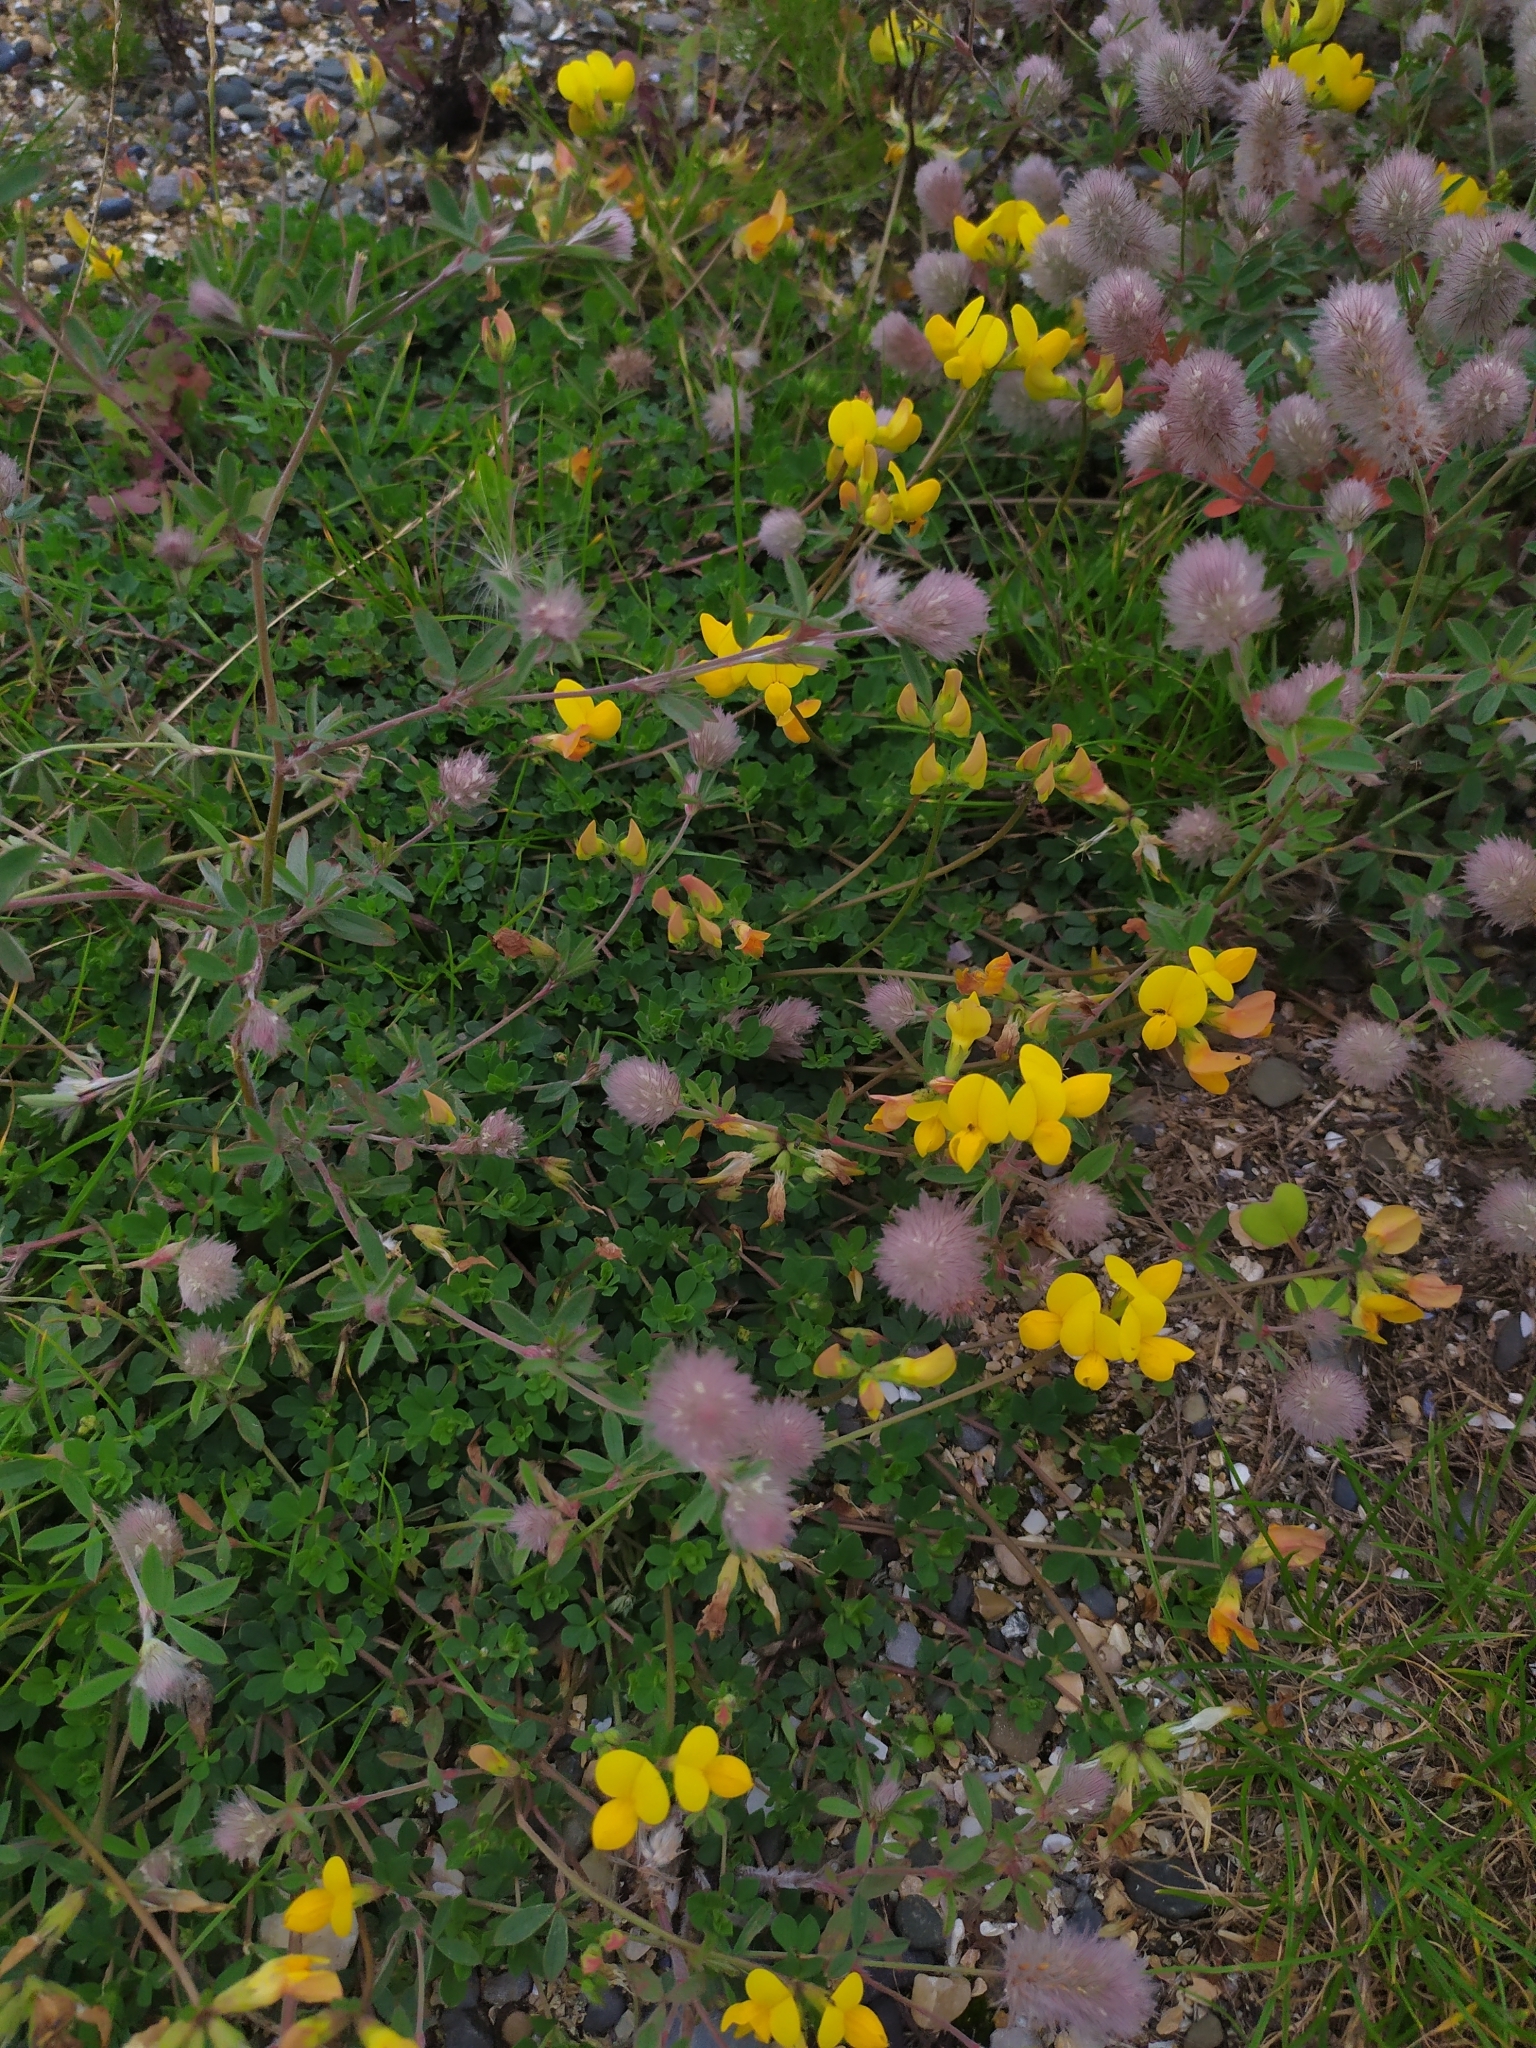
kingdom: Plantae
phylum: Tracheophyta
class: Magnoliopsida
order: Fabales
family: Fabaceae
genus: Lotus
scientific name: Lotus corniculatus
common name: Common bird's-foot-trefoil
